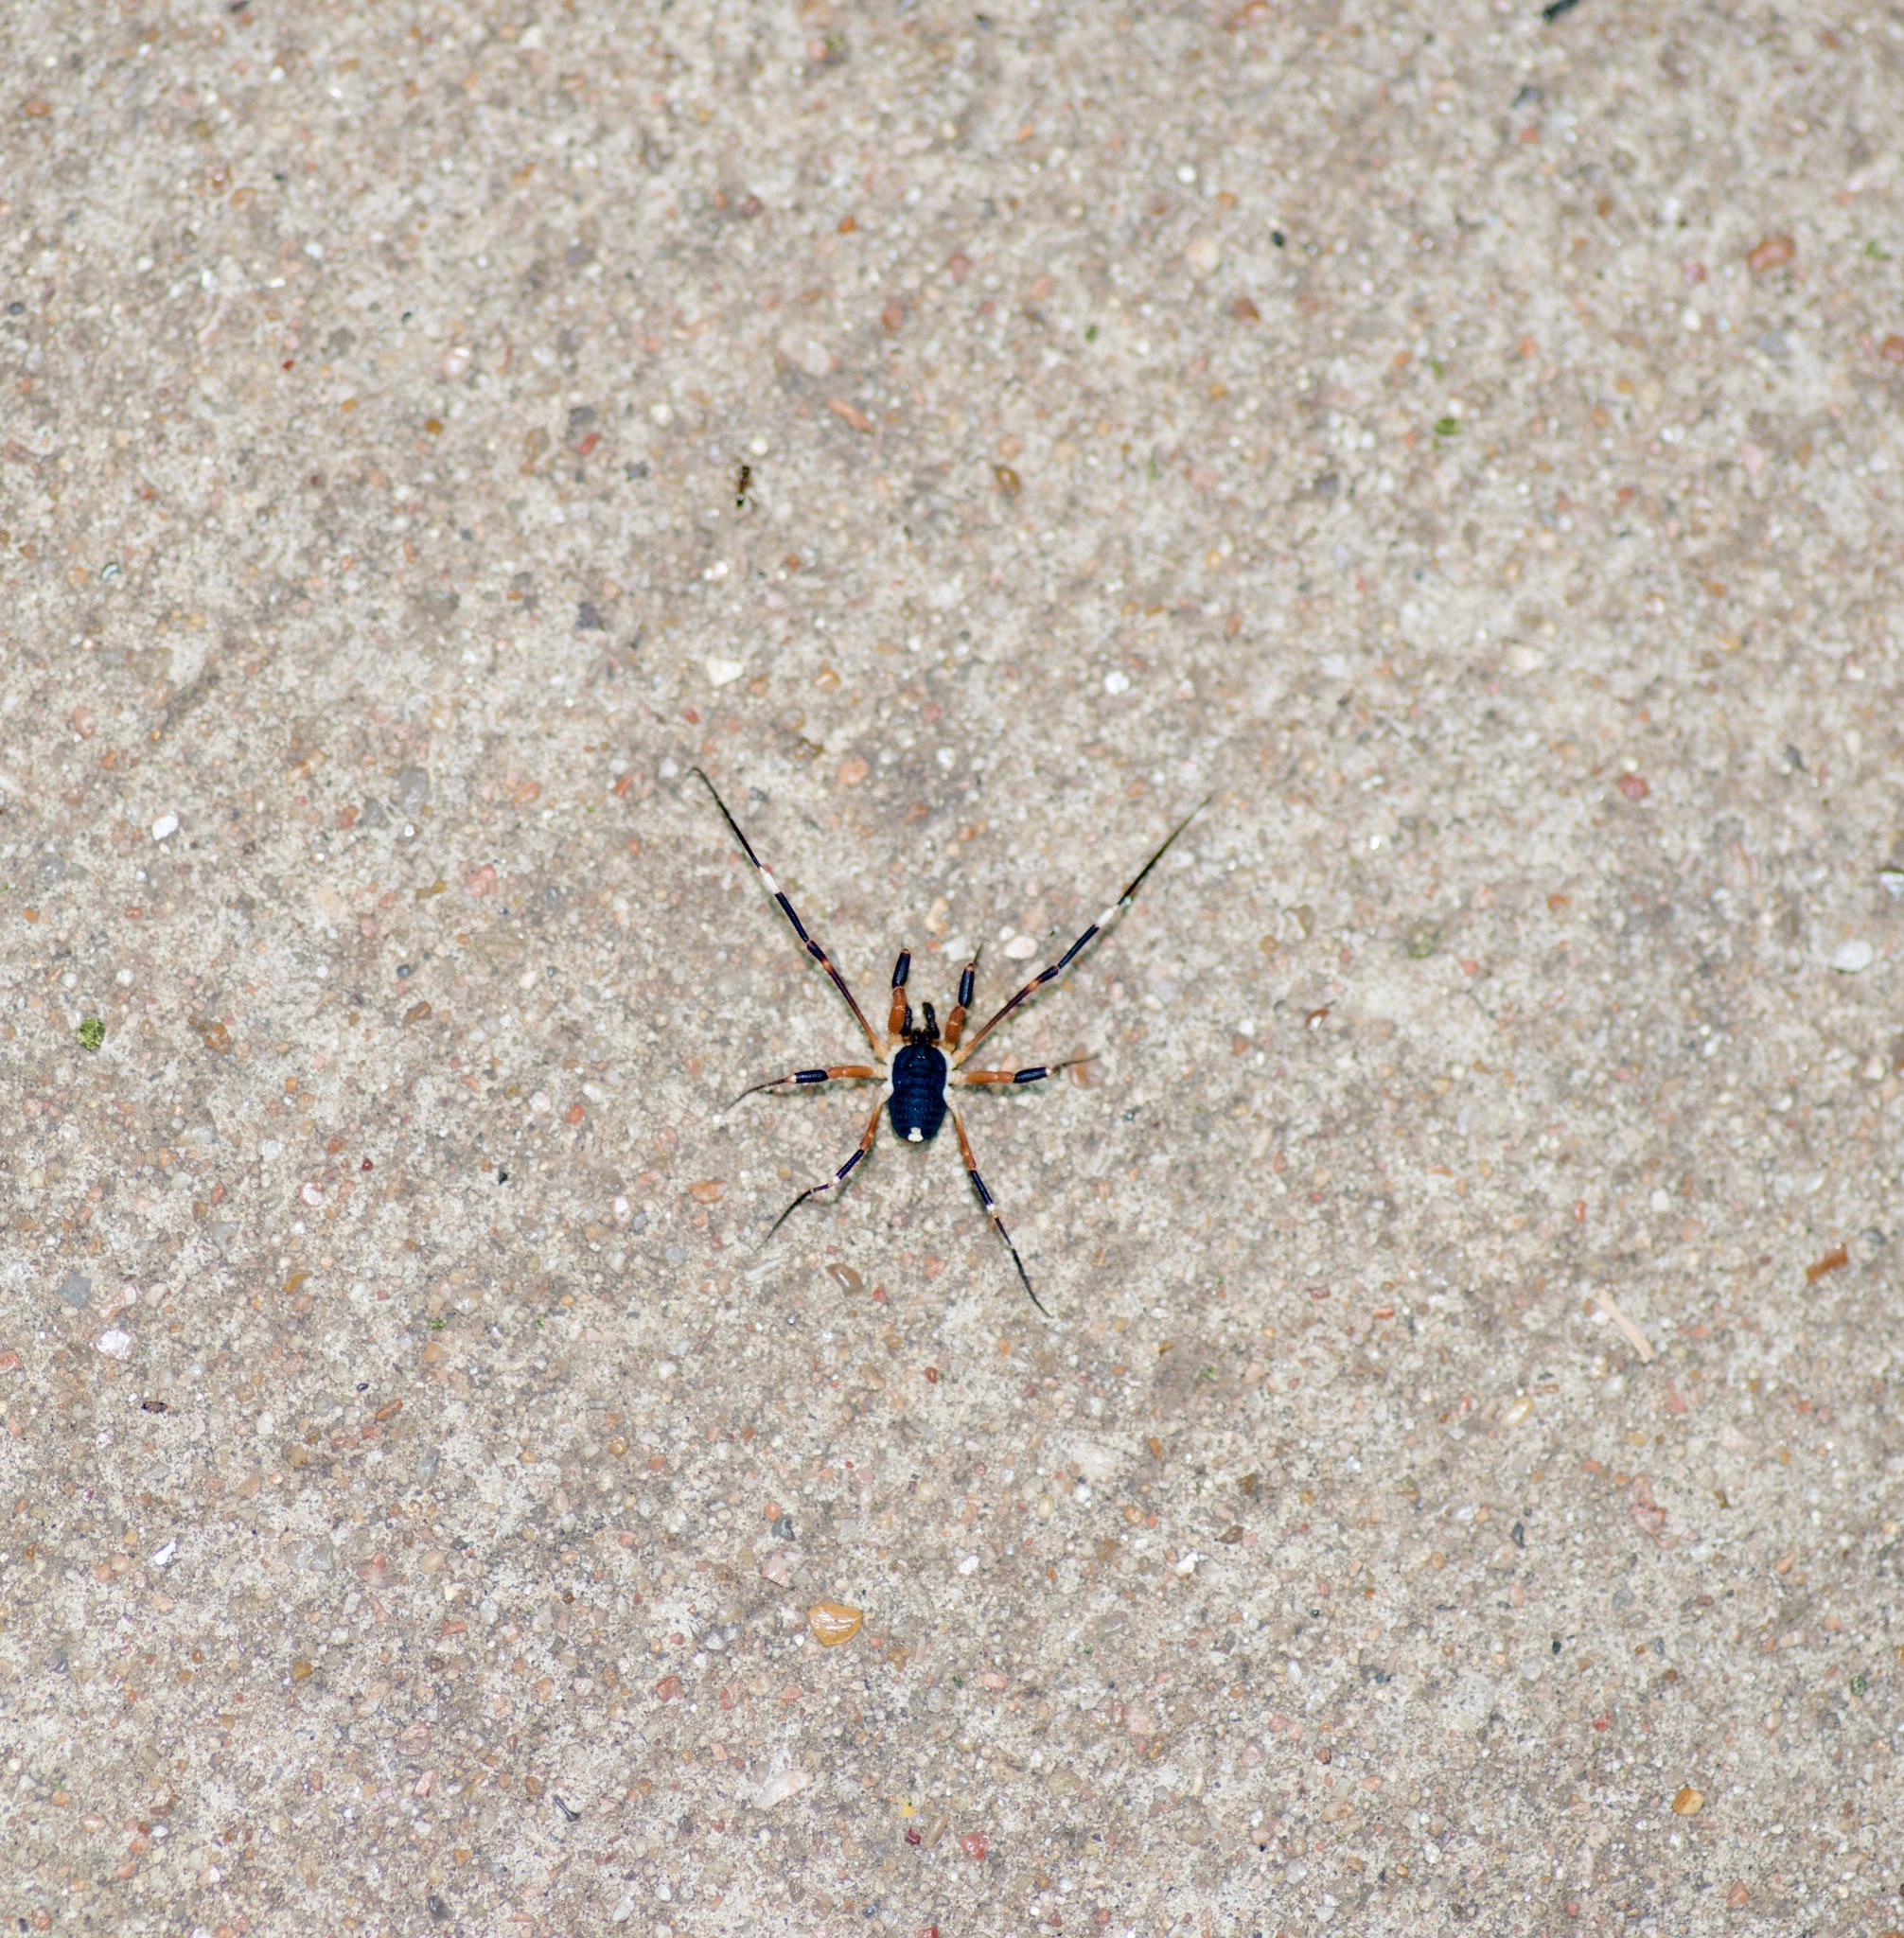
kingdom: Animalia
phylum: Arthropoda
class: Arachnida
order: Opiliones
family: Globipedidae
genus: Dalquestia
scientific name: Dalquestia formosa
